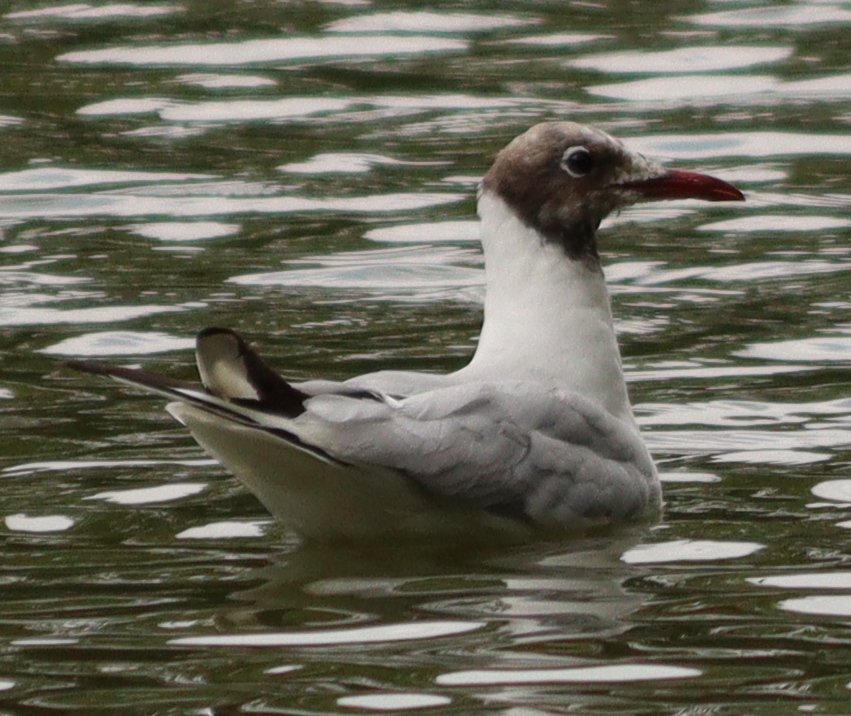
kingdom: Animalia
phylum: Chordata
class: Aves
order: Charadriiformes
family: Laridae
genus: Chroicocephalus
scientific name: Chroicocephalus ridibundus
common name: Black-headed gull
